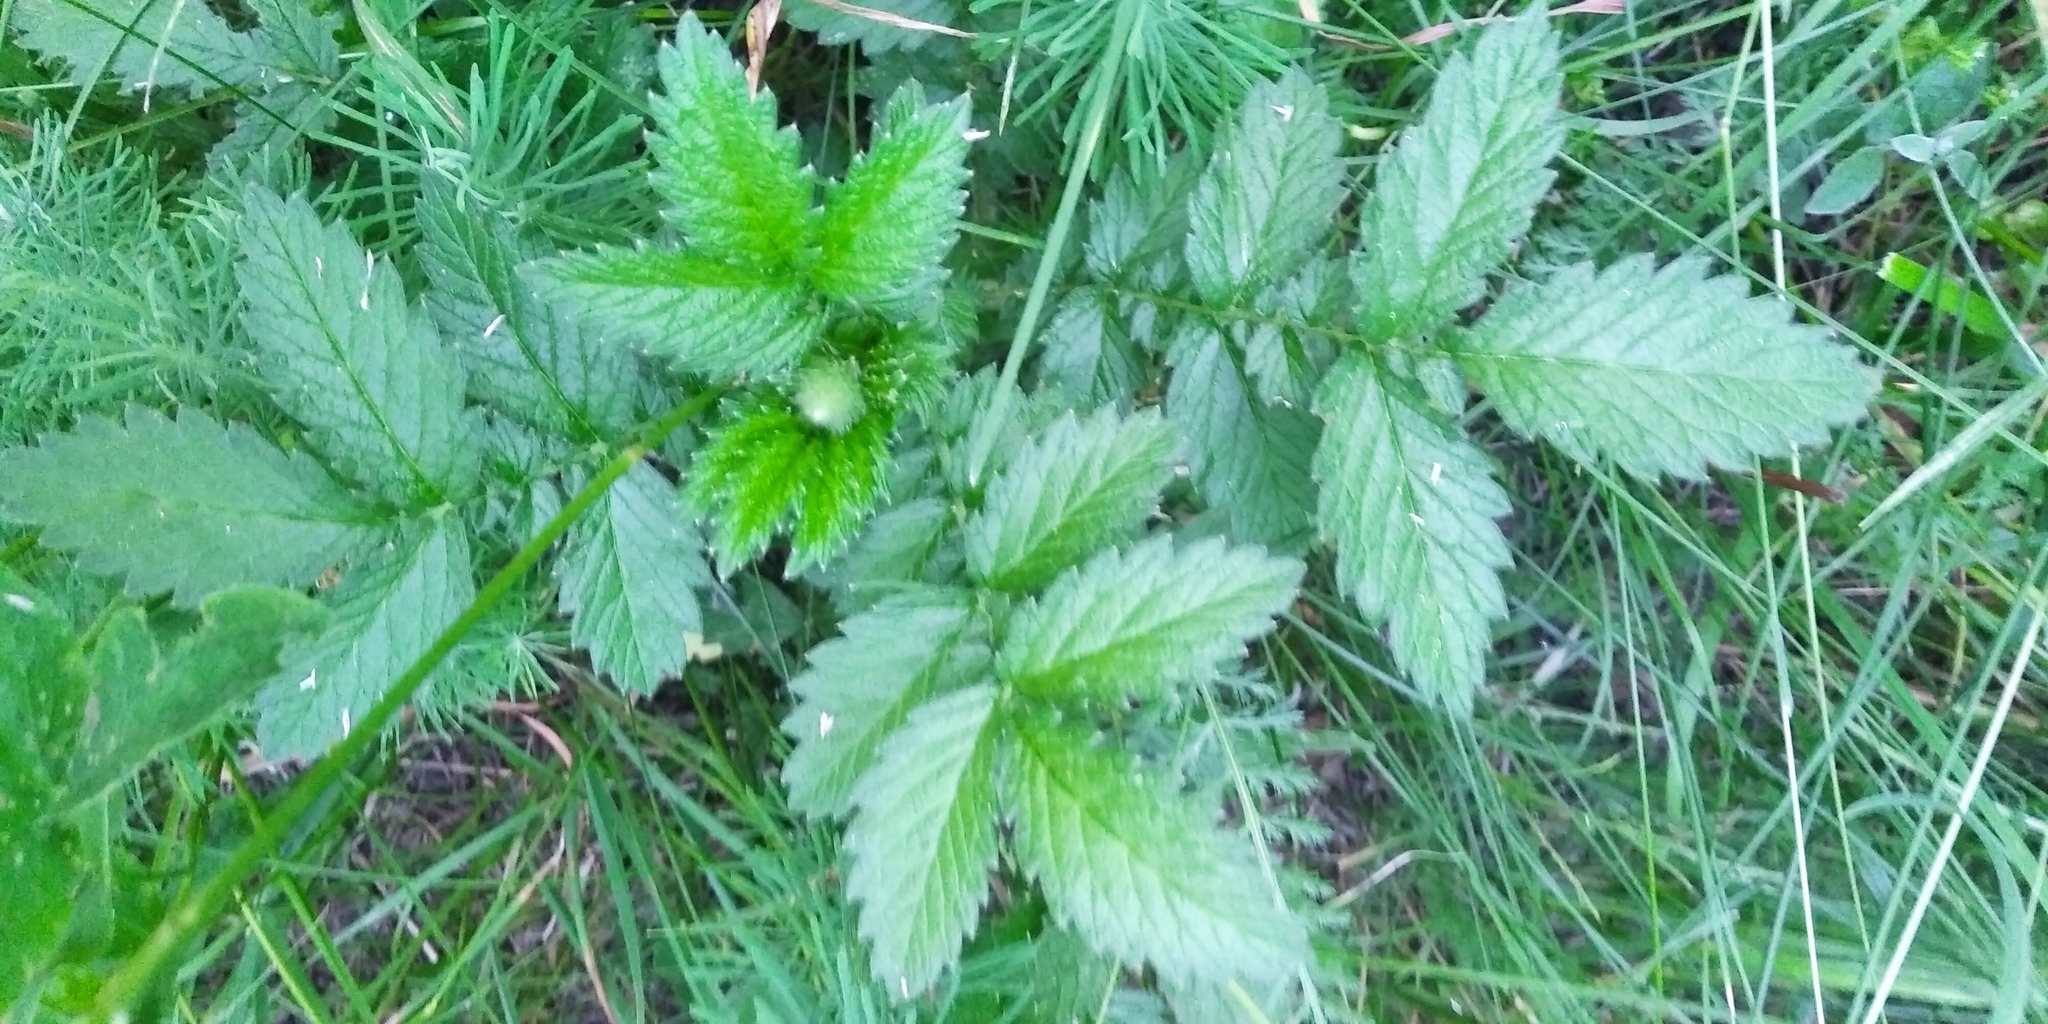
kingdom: Plantae
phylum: Tracheophyta
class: Magnoliopsida
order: Rosales
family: Rosaceae
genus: Agrimonia
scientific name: Agrimonia eupatoria
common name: Agrimony
